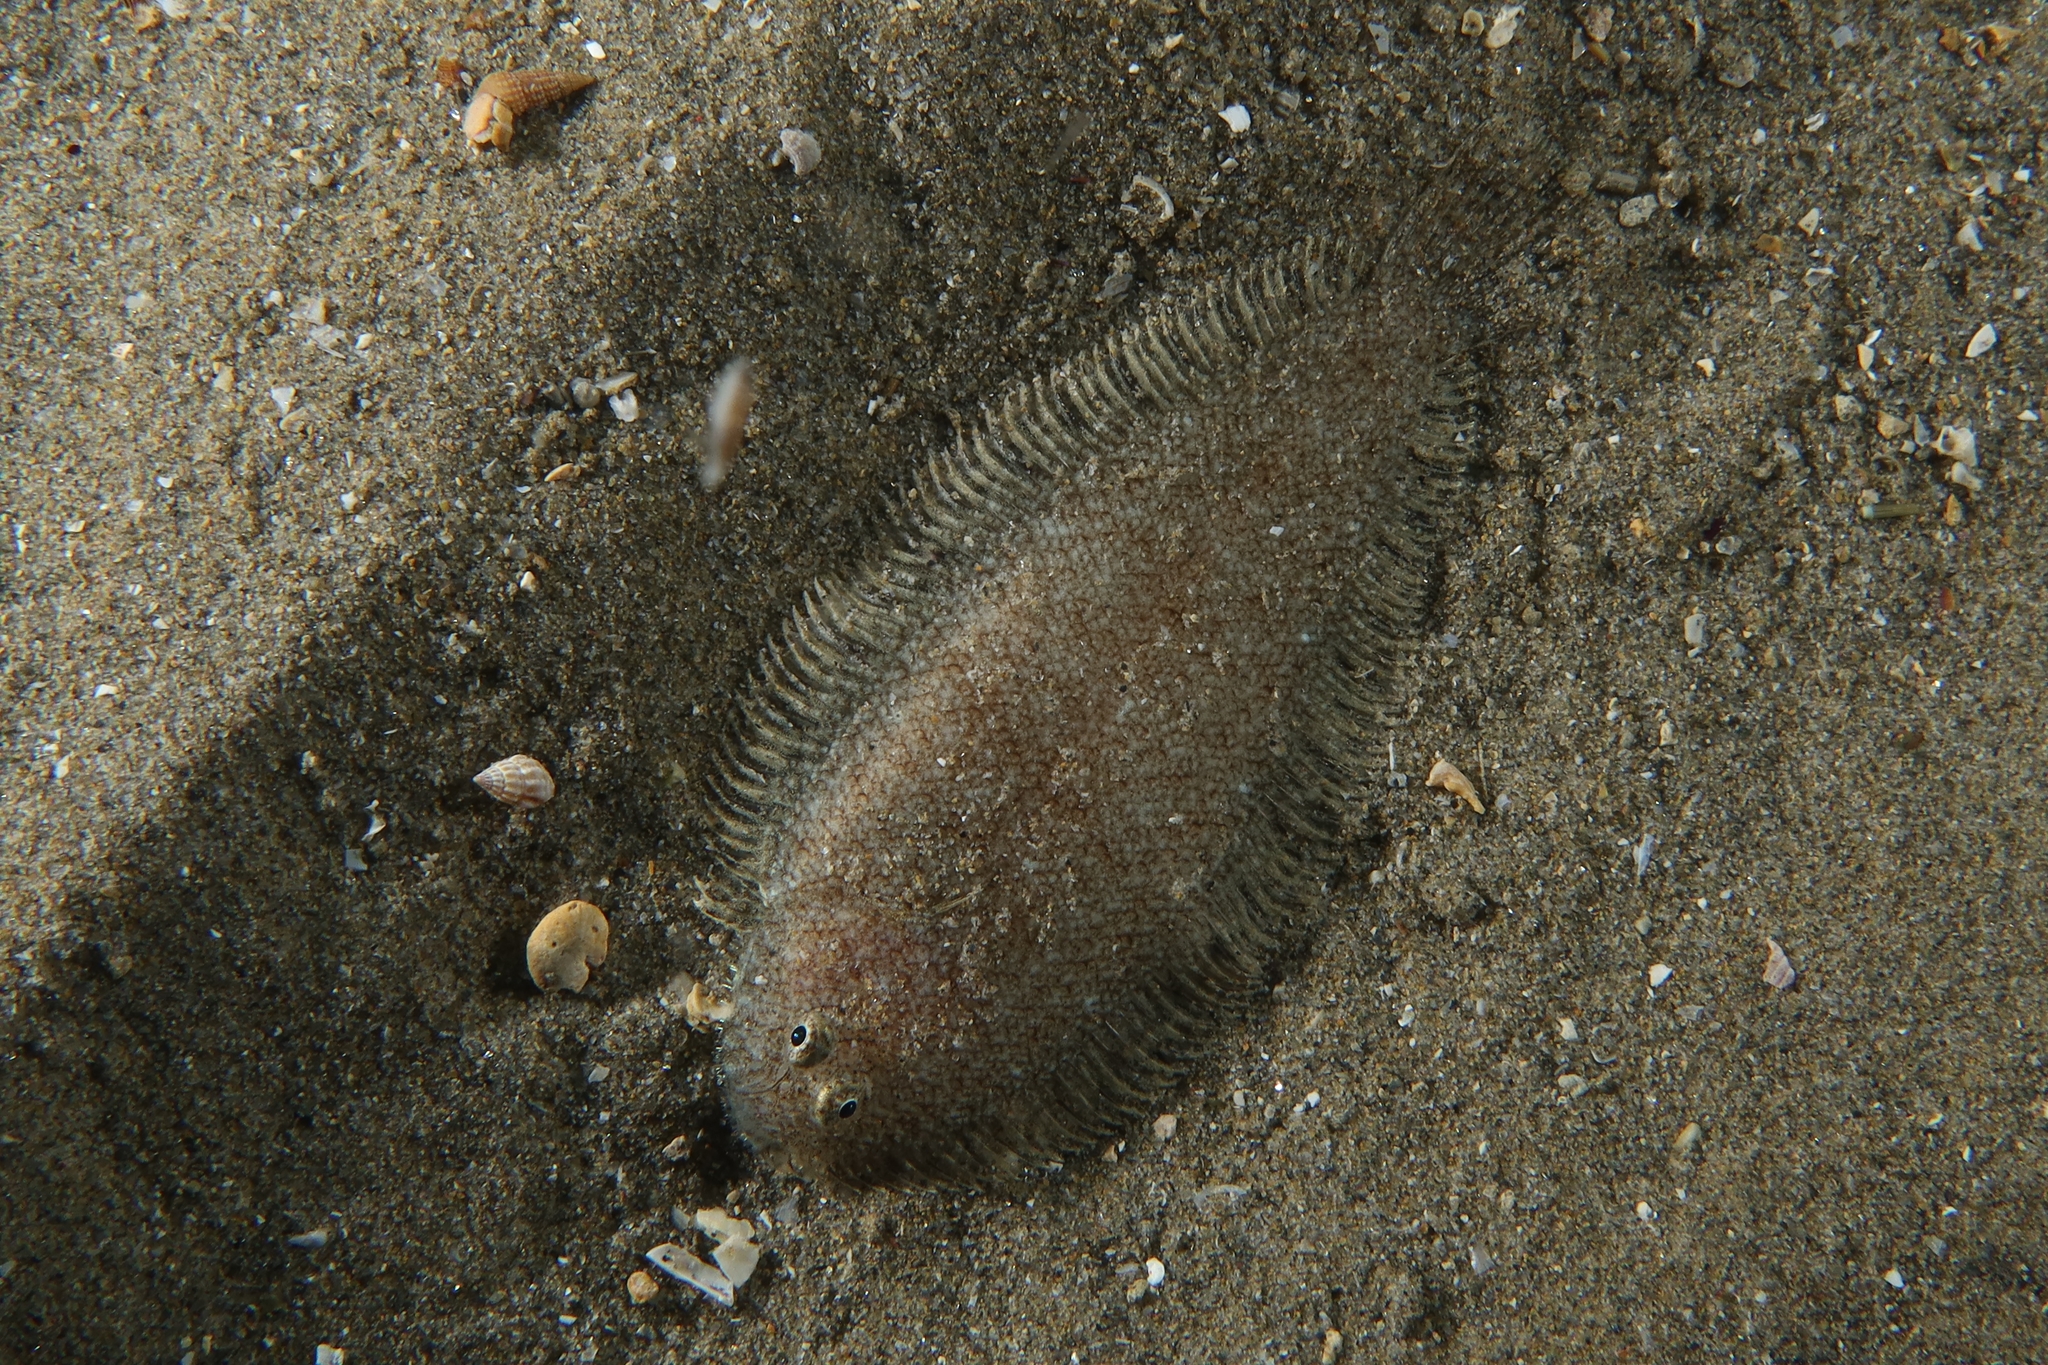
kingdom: Animalia
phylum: Chordata
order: Pleuronectiformes
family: Soleidae
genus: Buglossidium
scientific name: Buglossidium luteum
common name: Solenette
